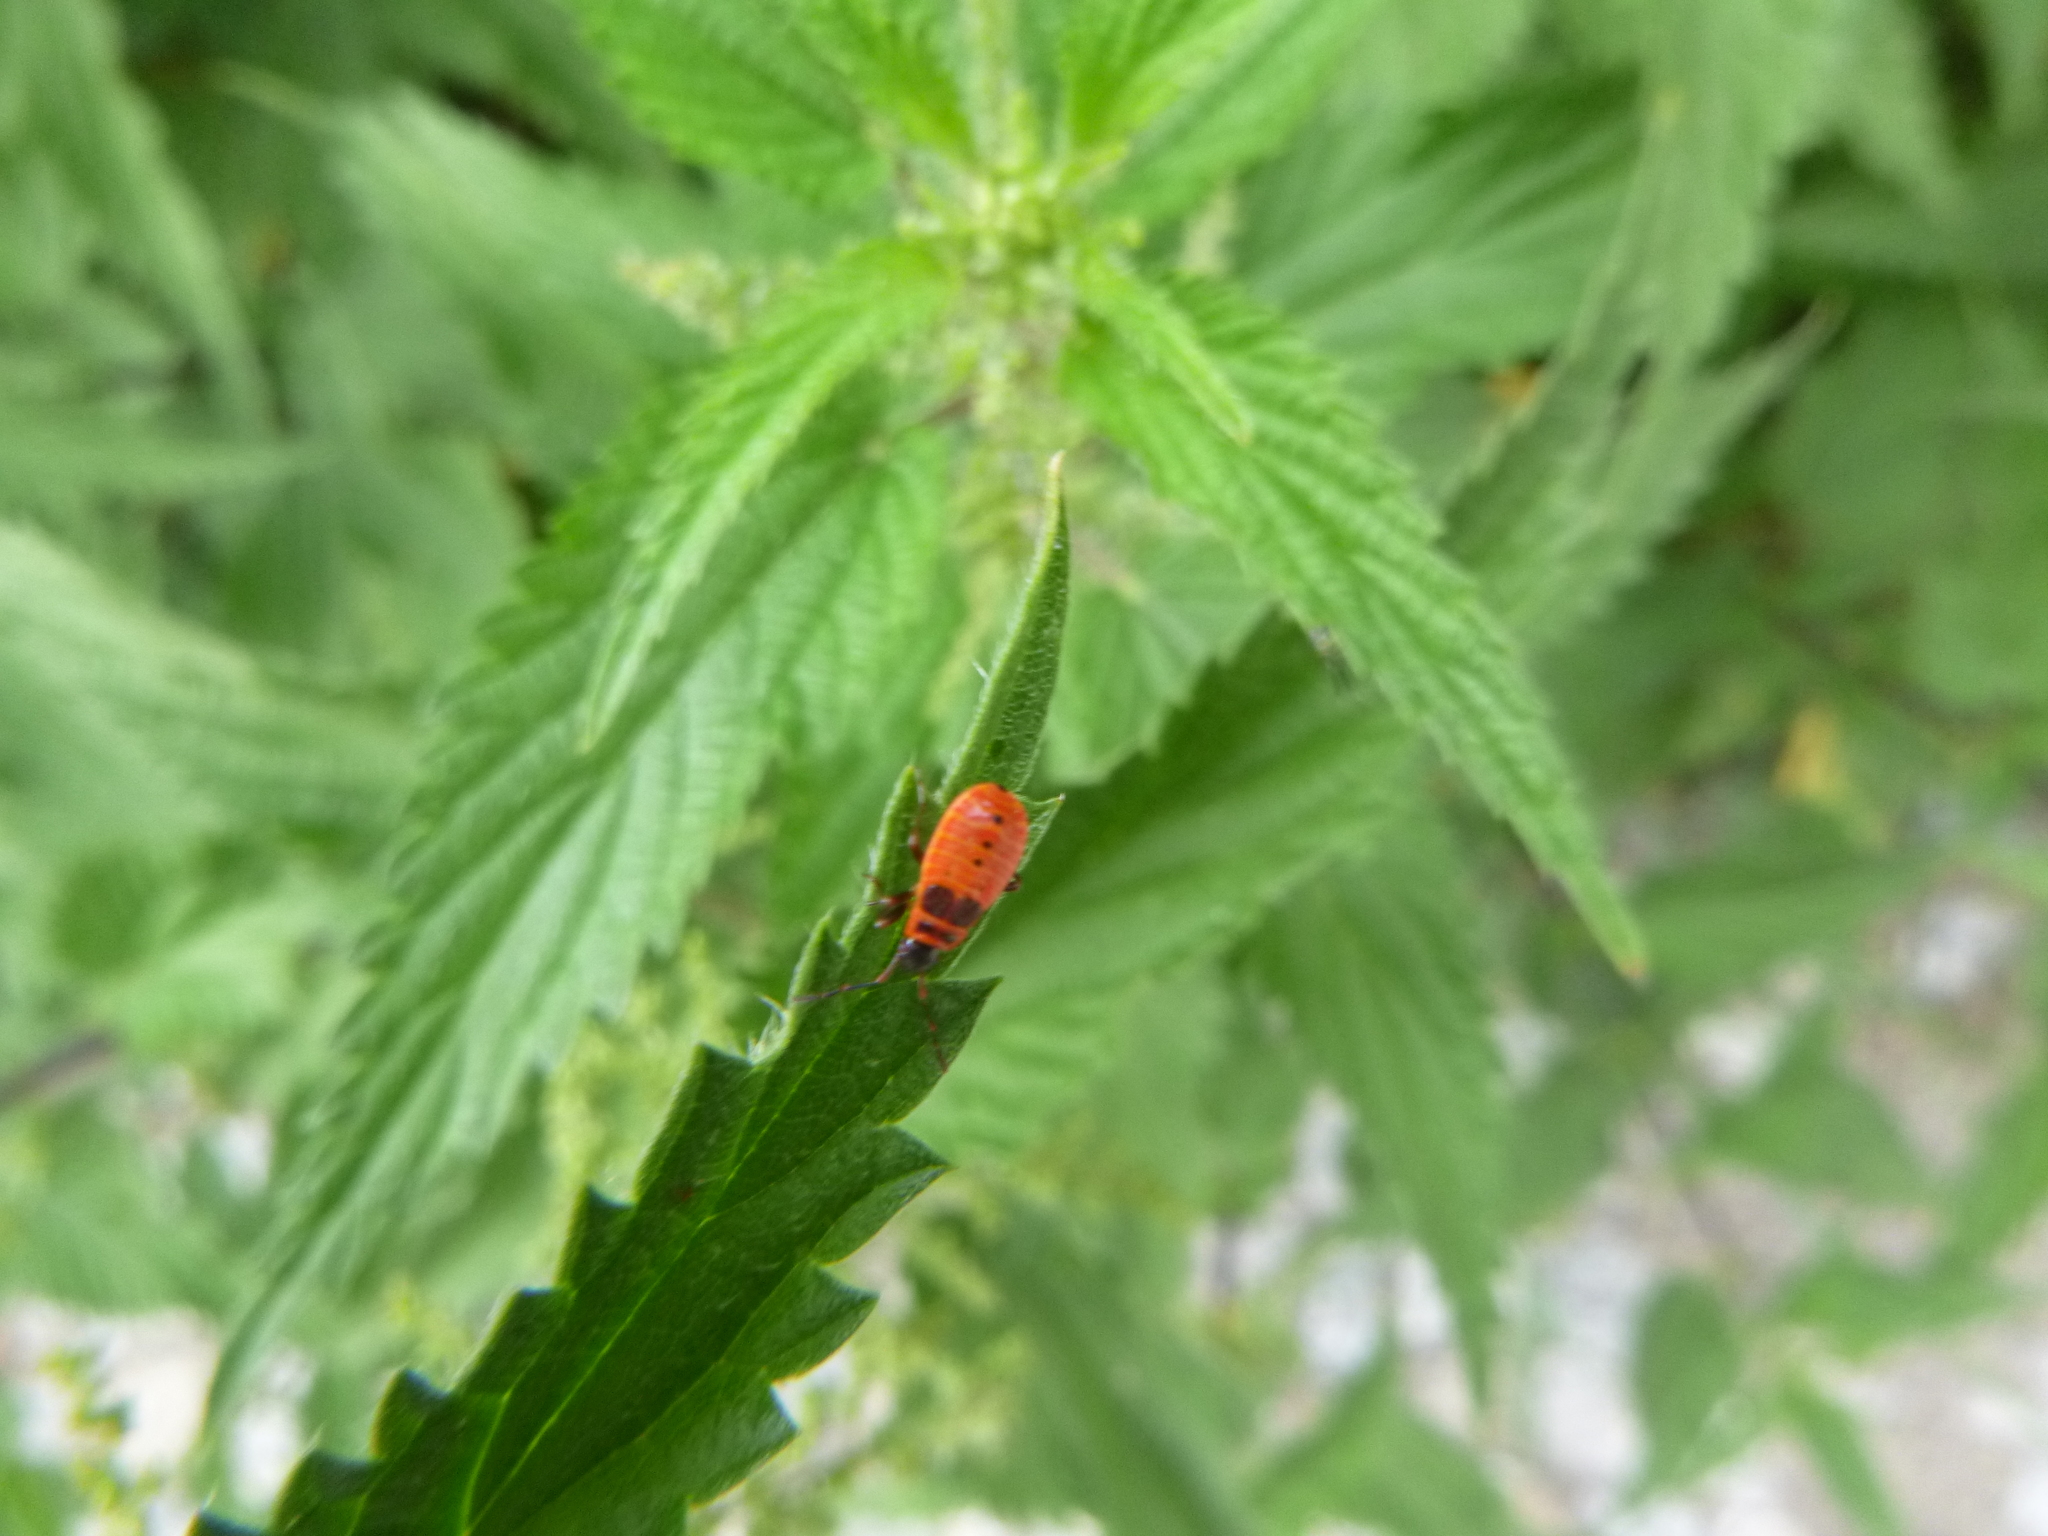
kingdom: Animalia
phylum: Arthropoda
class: Insecta
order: Hemiptera
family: Pyrrhocoridae
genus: Pyrrhocoris
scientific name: Pyrrhocoris apterus
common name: Firebug
